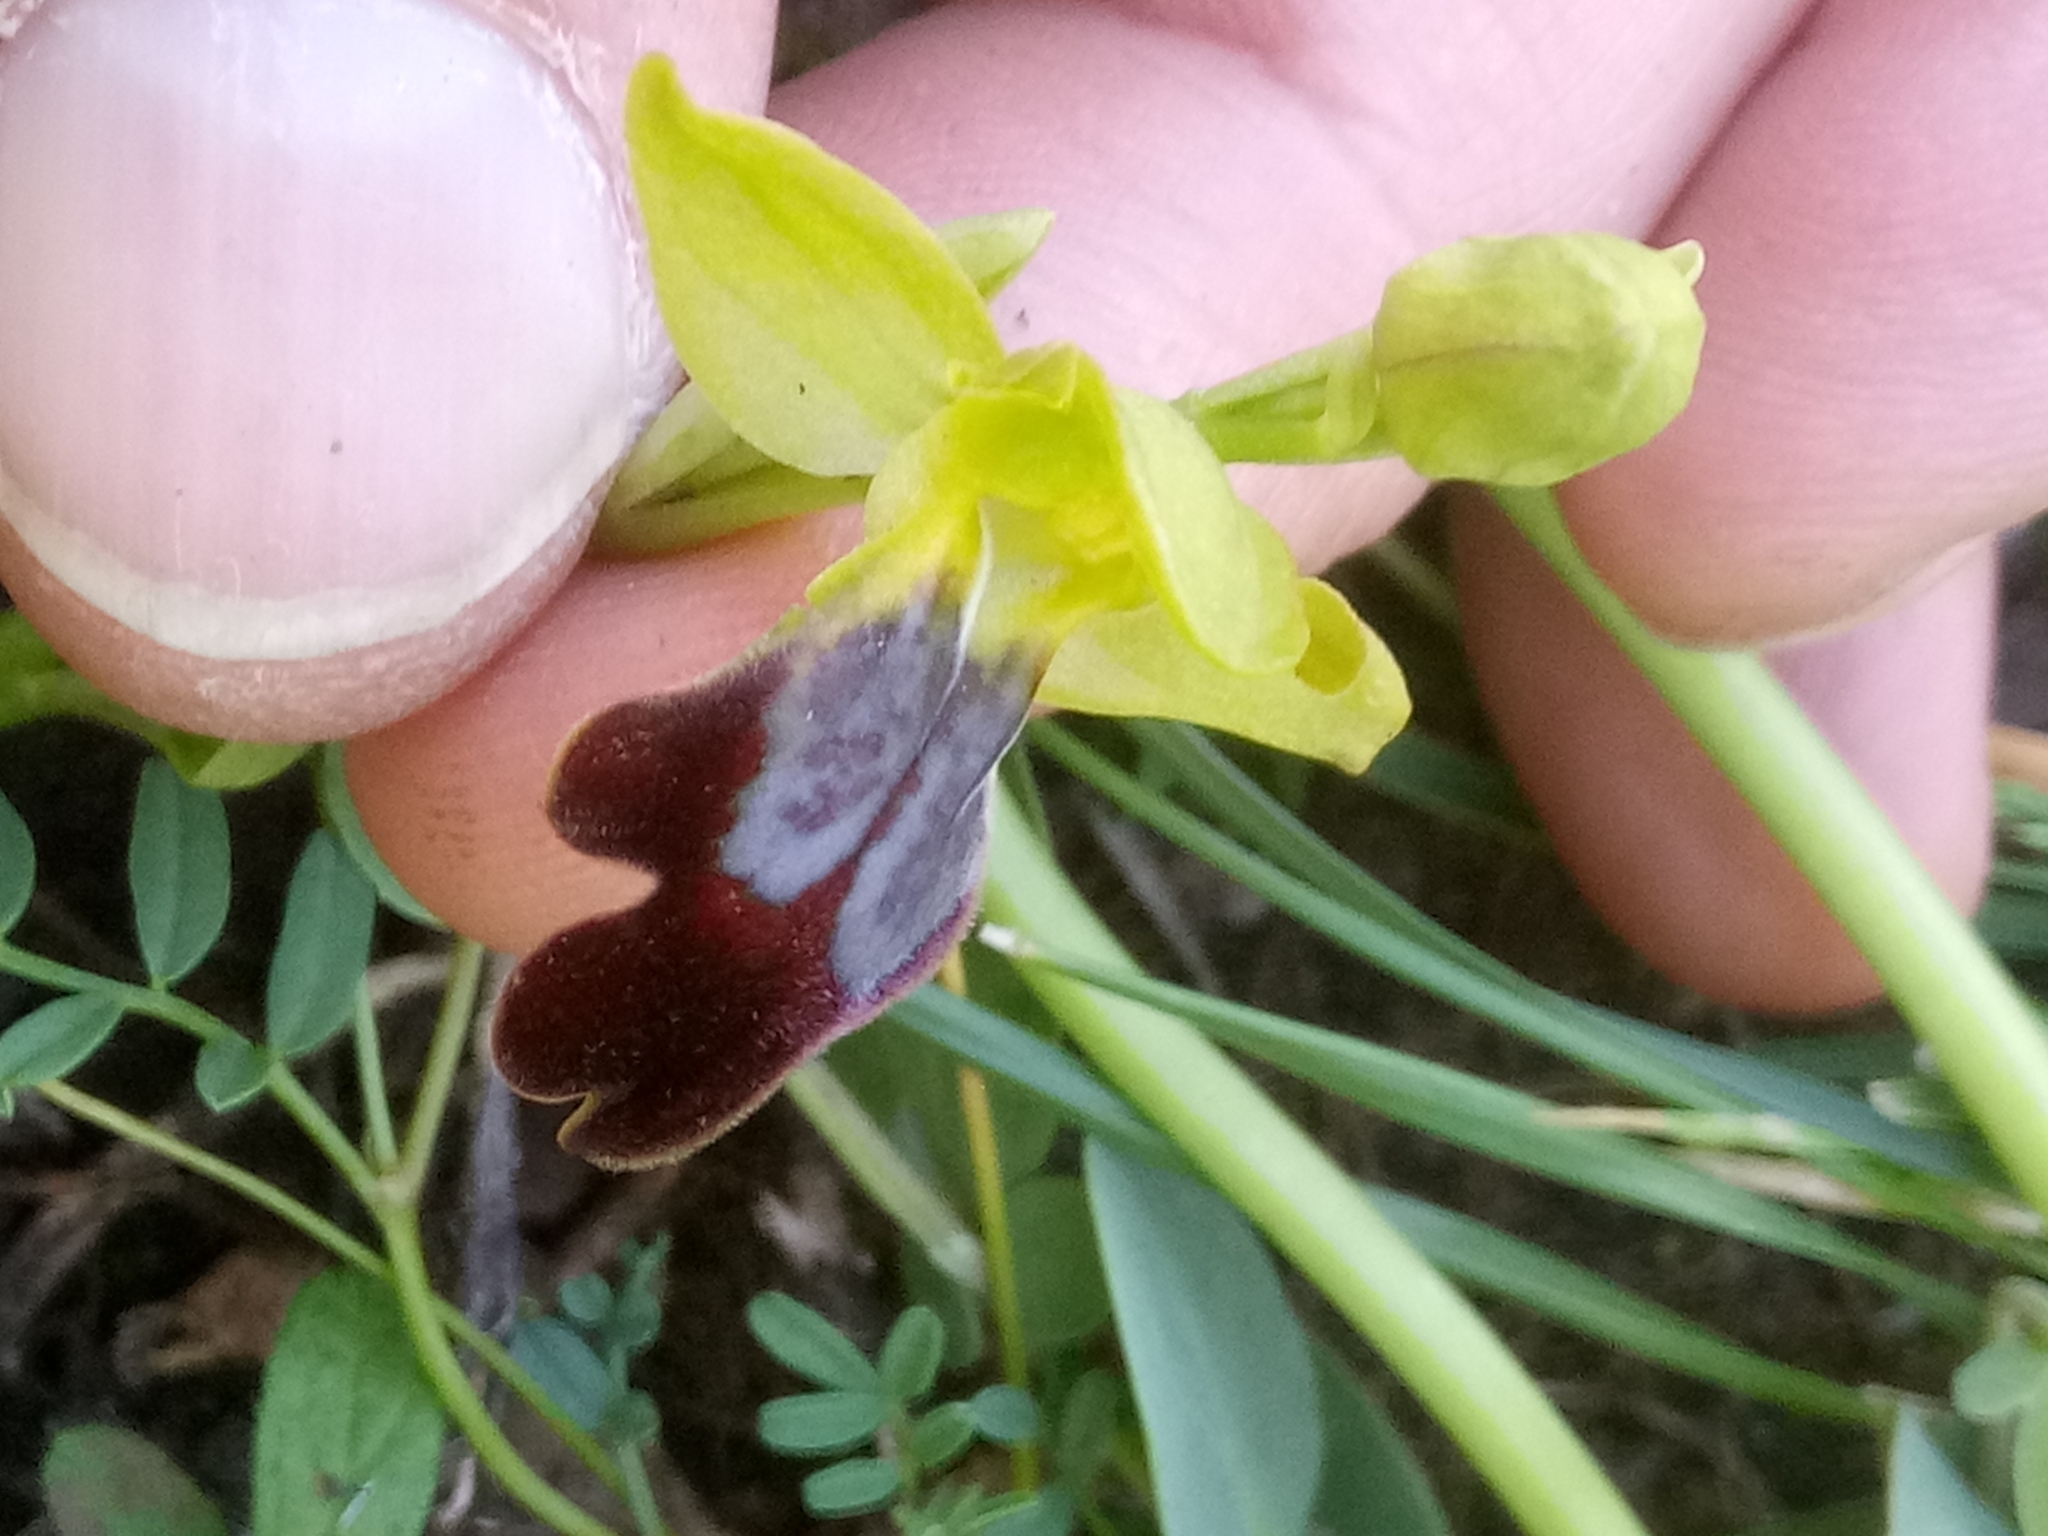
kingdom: Plantae
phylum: Tracheophyta
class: Liliopsida
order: Asparagales
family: Orchidaceae
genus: Ophrys
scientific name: Ophrys fusca
